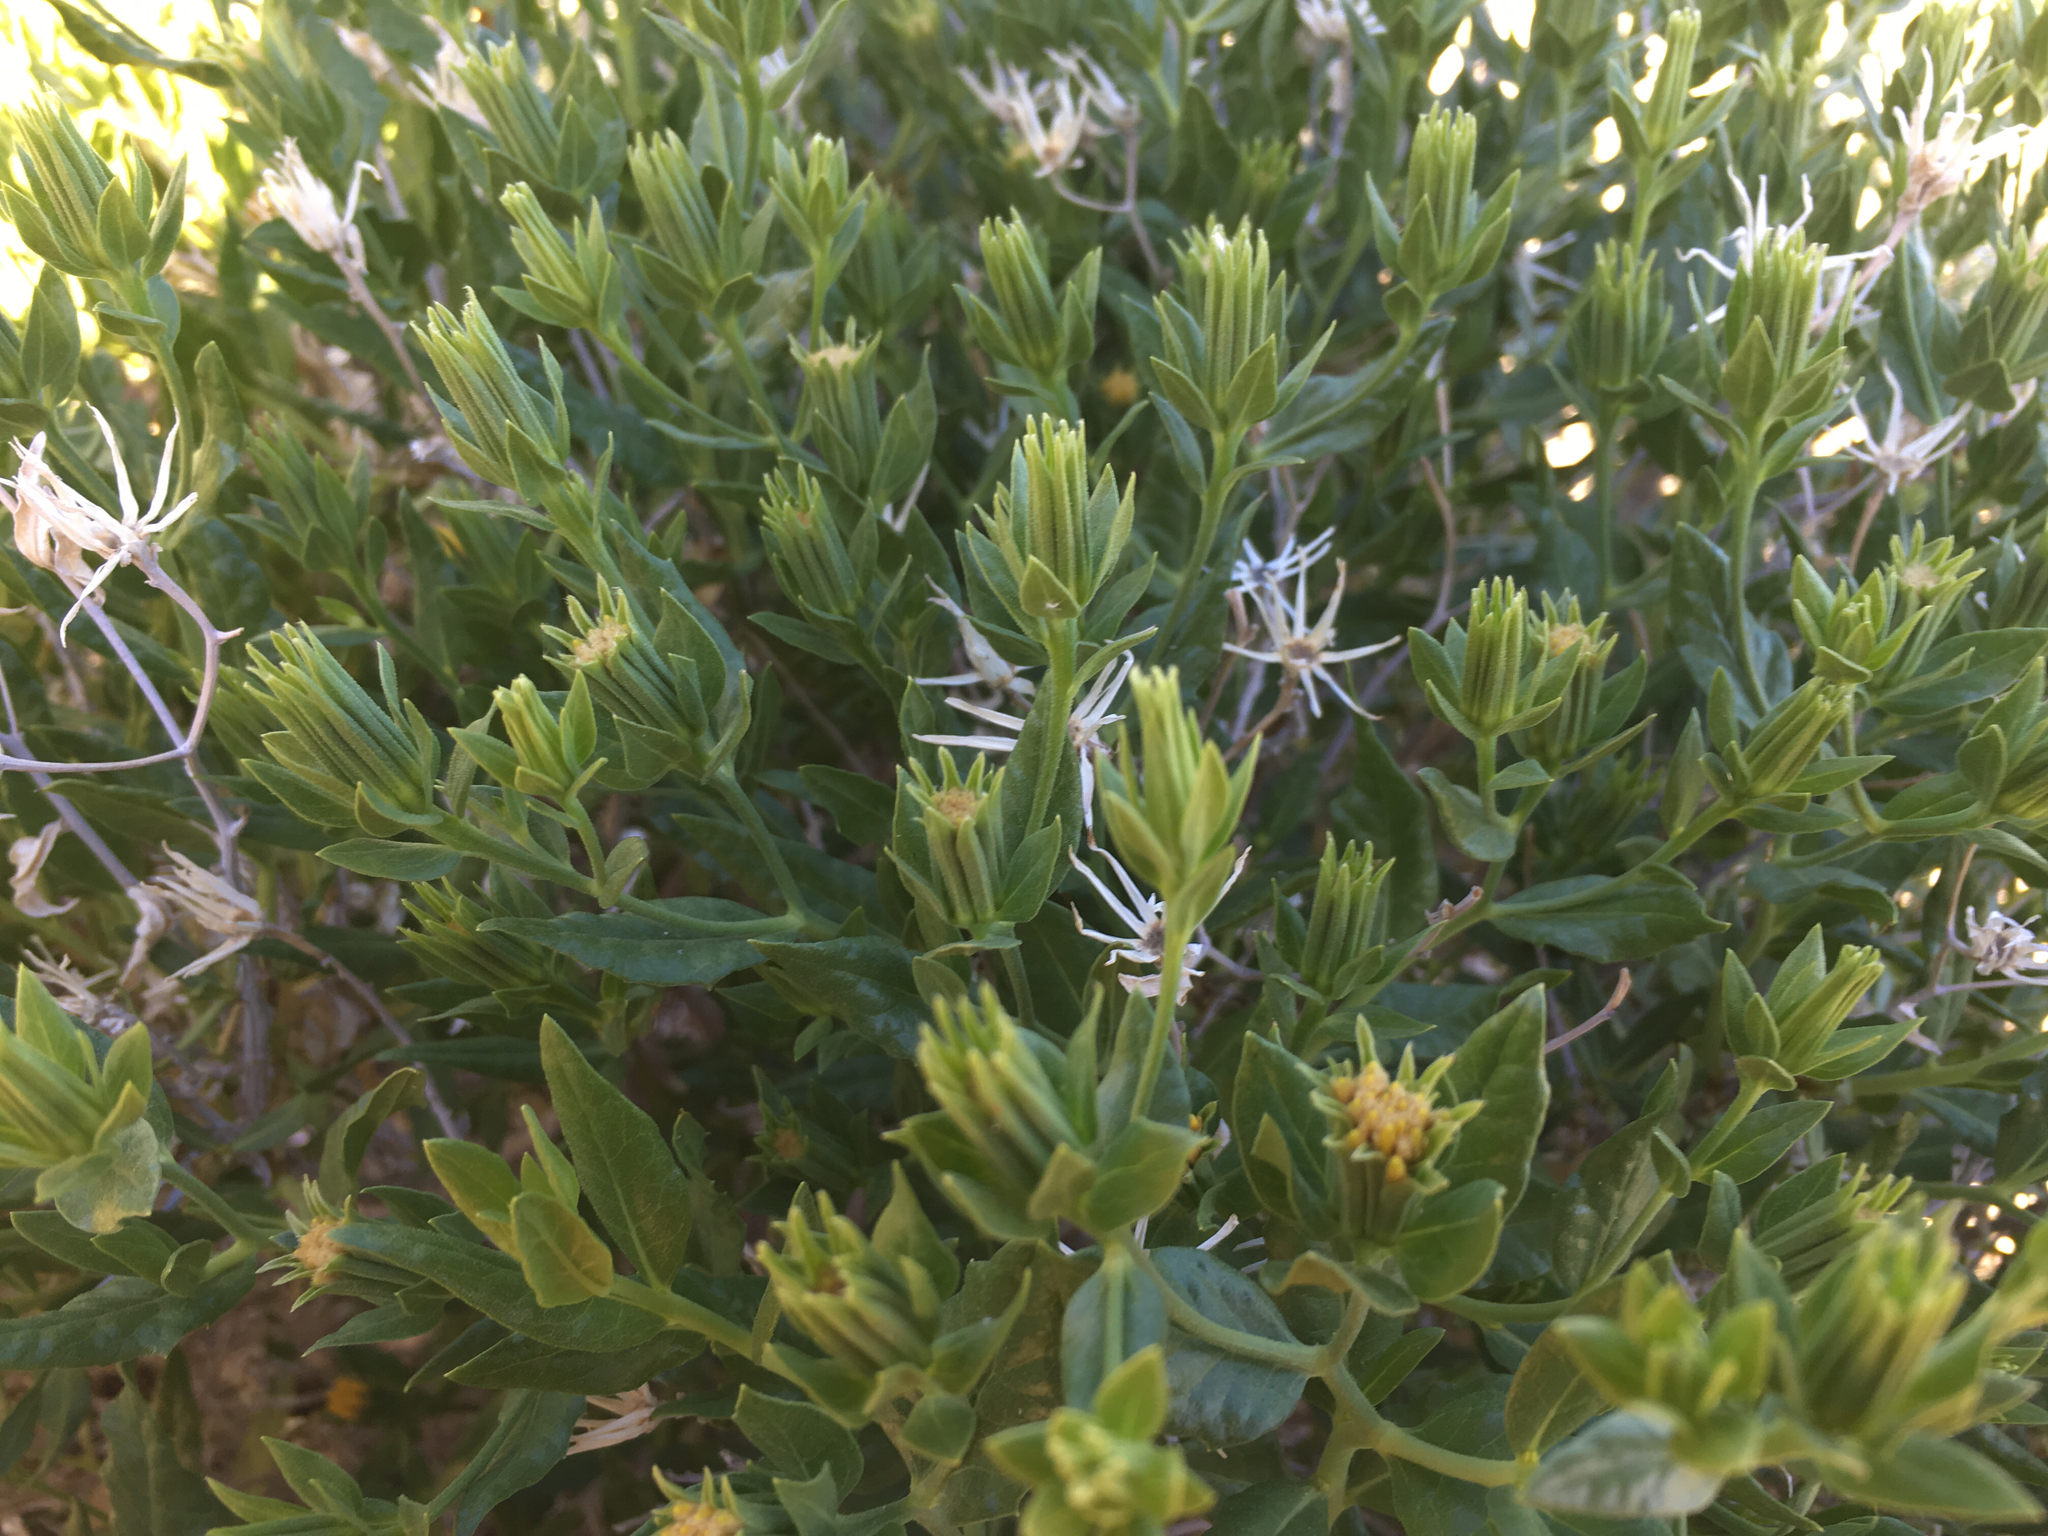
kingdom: Plantae
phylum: Tracheophyta
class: Magnoliopsida
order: Asterales
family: Asteraceae
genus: Trixis
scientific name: Trixis californica
